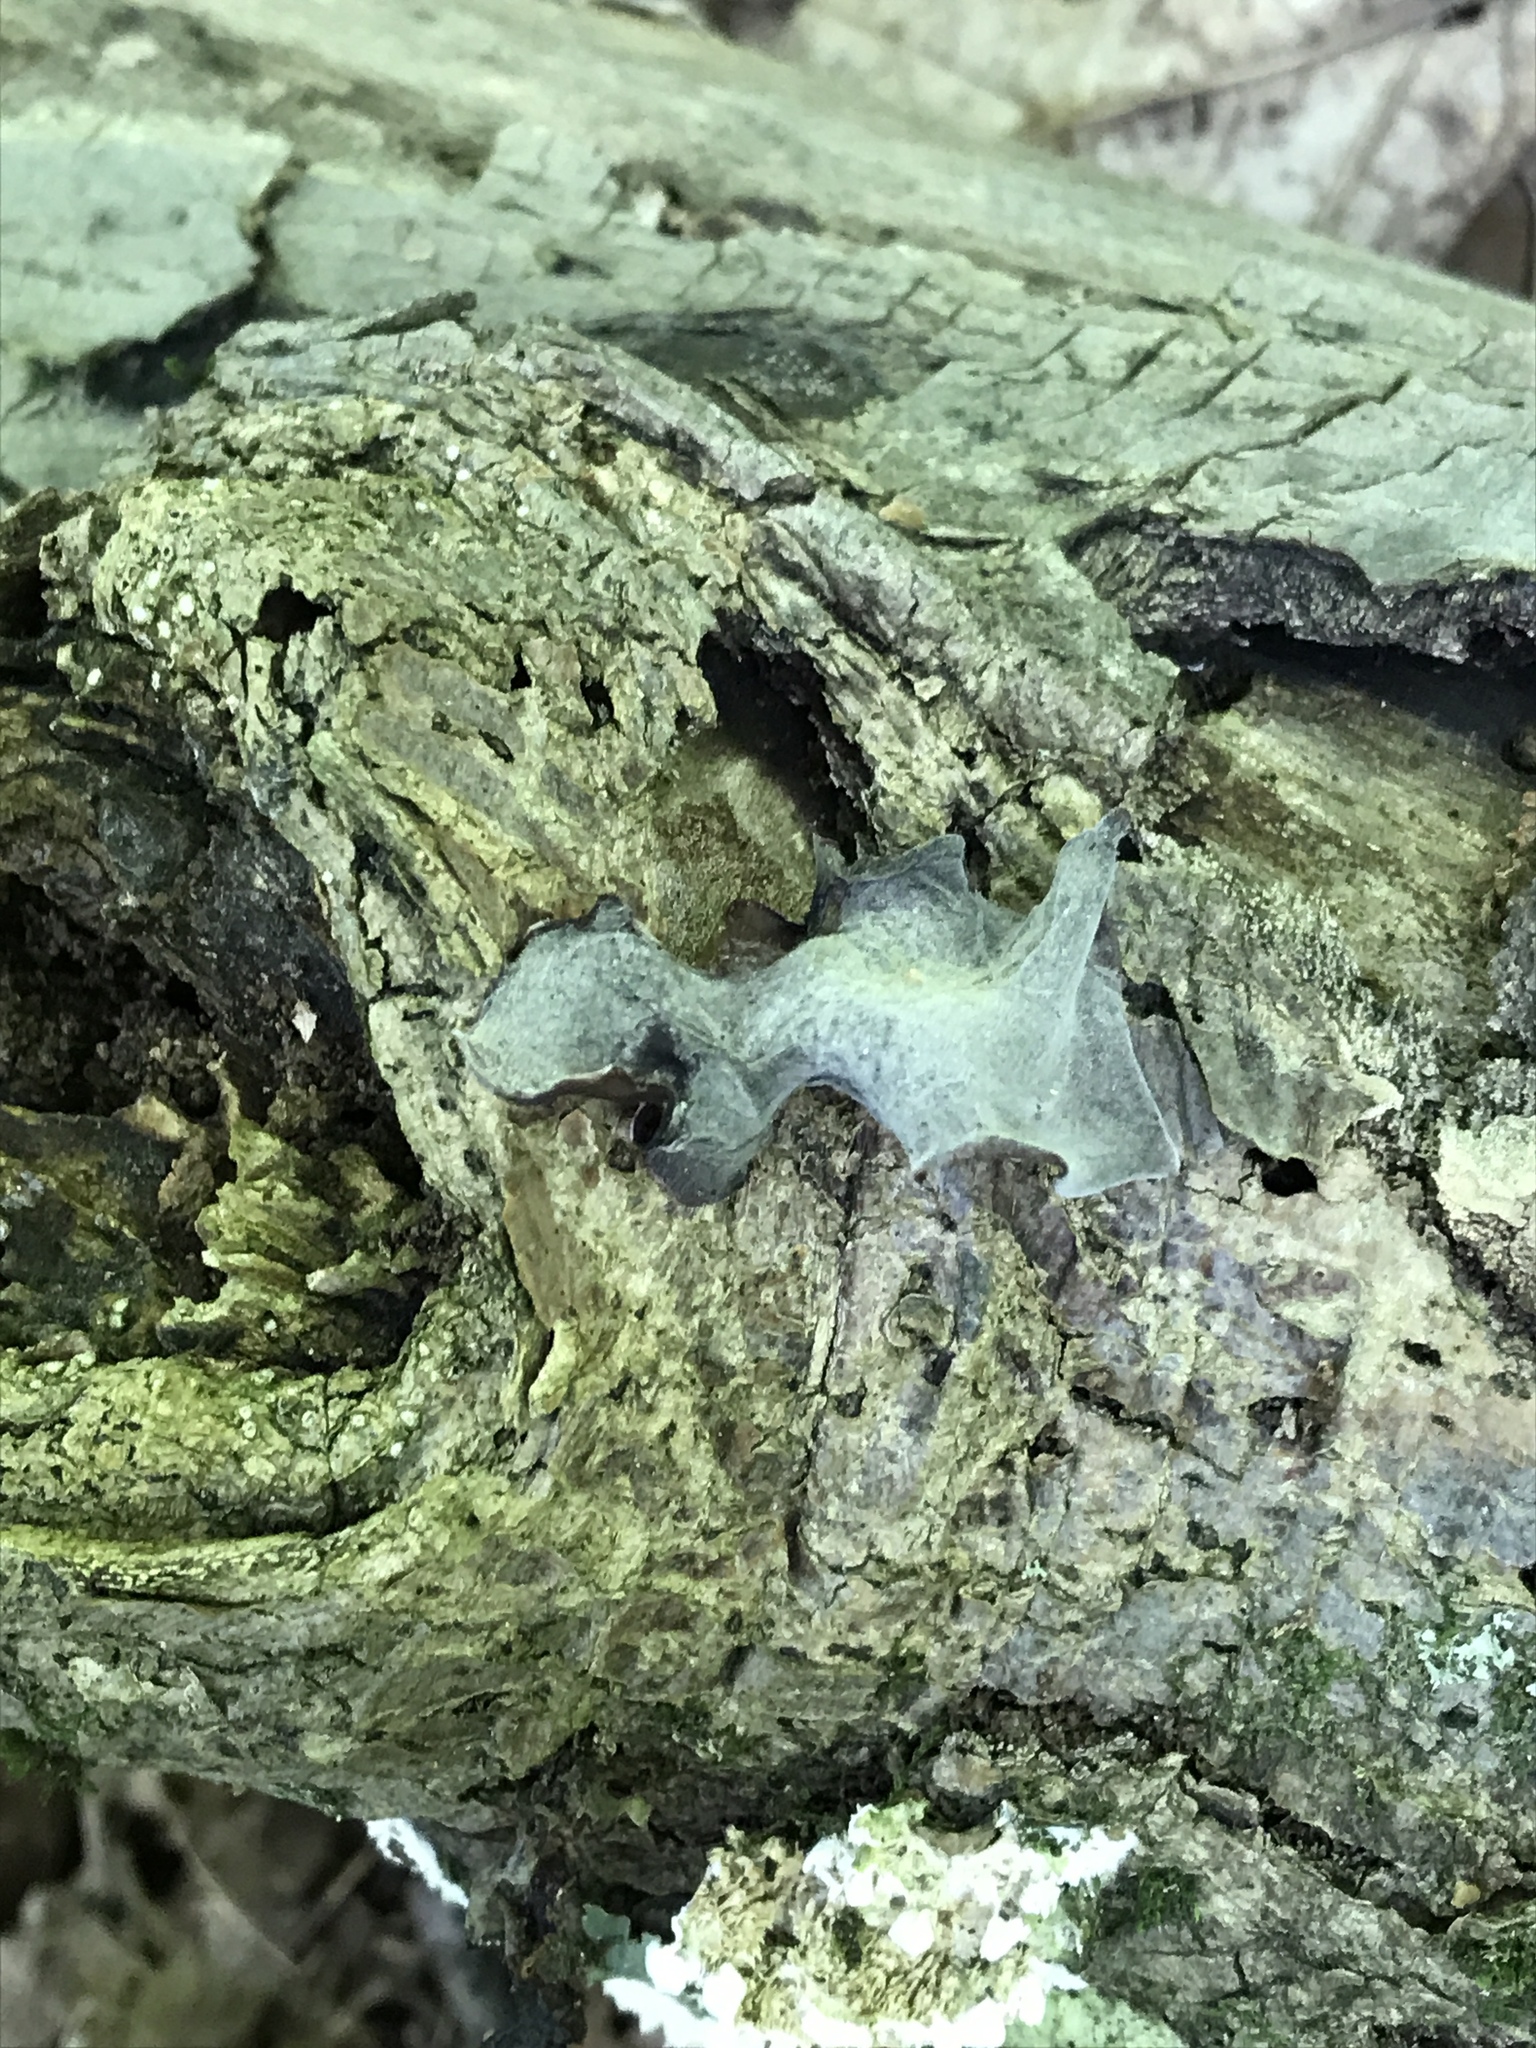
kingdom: Fungi
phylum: Basidiomycota
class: Agaricomycetes
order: Auriculariales
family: Auriculariaceae
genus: Auricularia
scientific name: Auricularia angiospermarum
